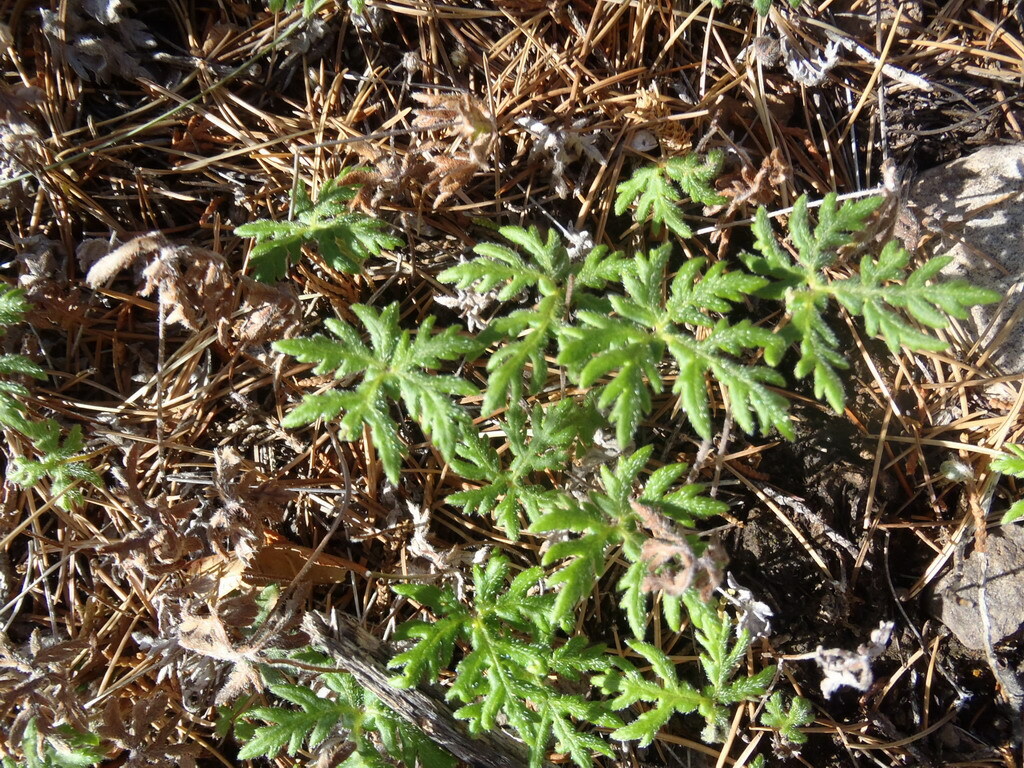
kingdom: Plantae
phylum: Tracheophyta
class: Polypodiopsida
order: Polypodiales
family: Pteridaceae
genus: Bommeria
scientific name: Bommeria hispida
